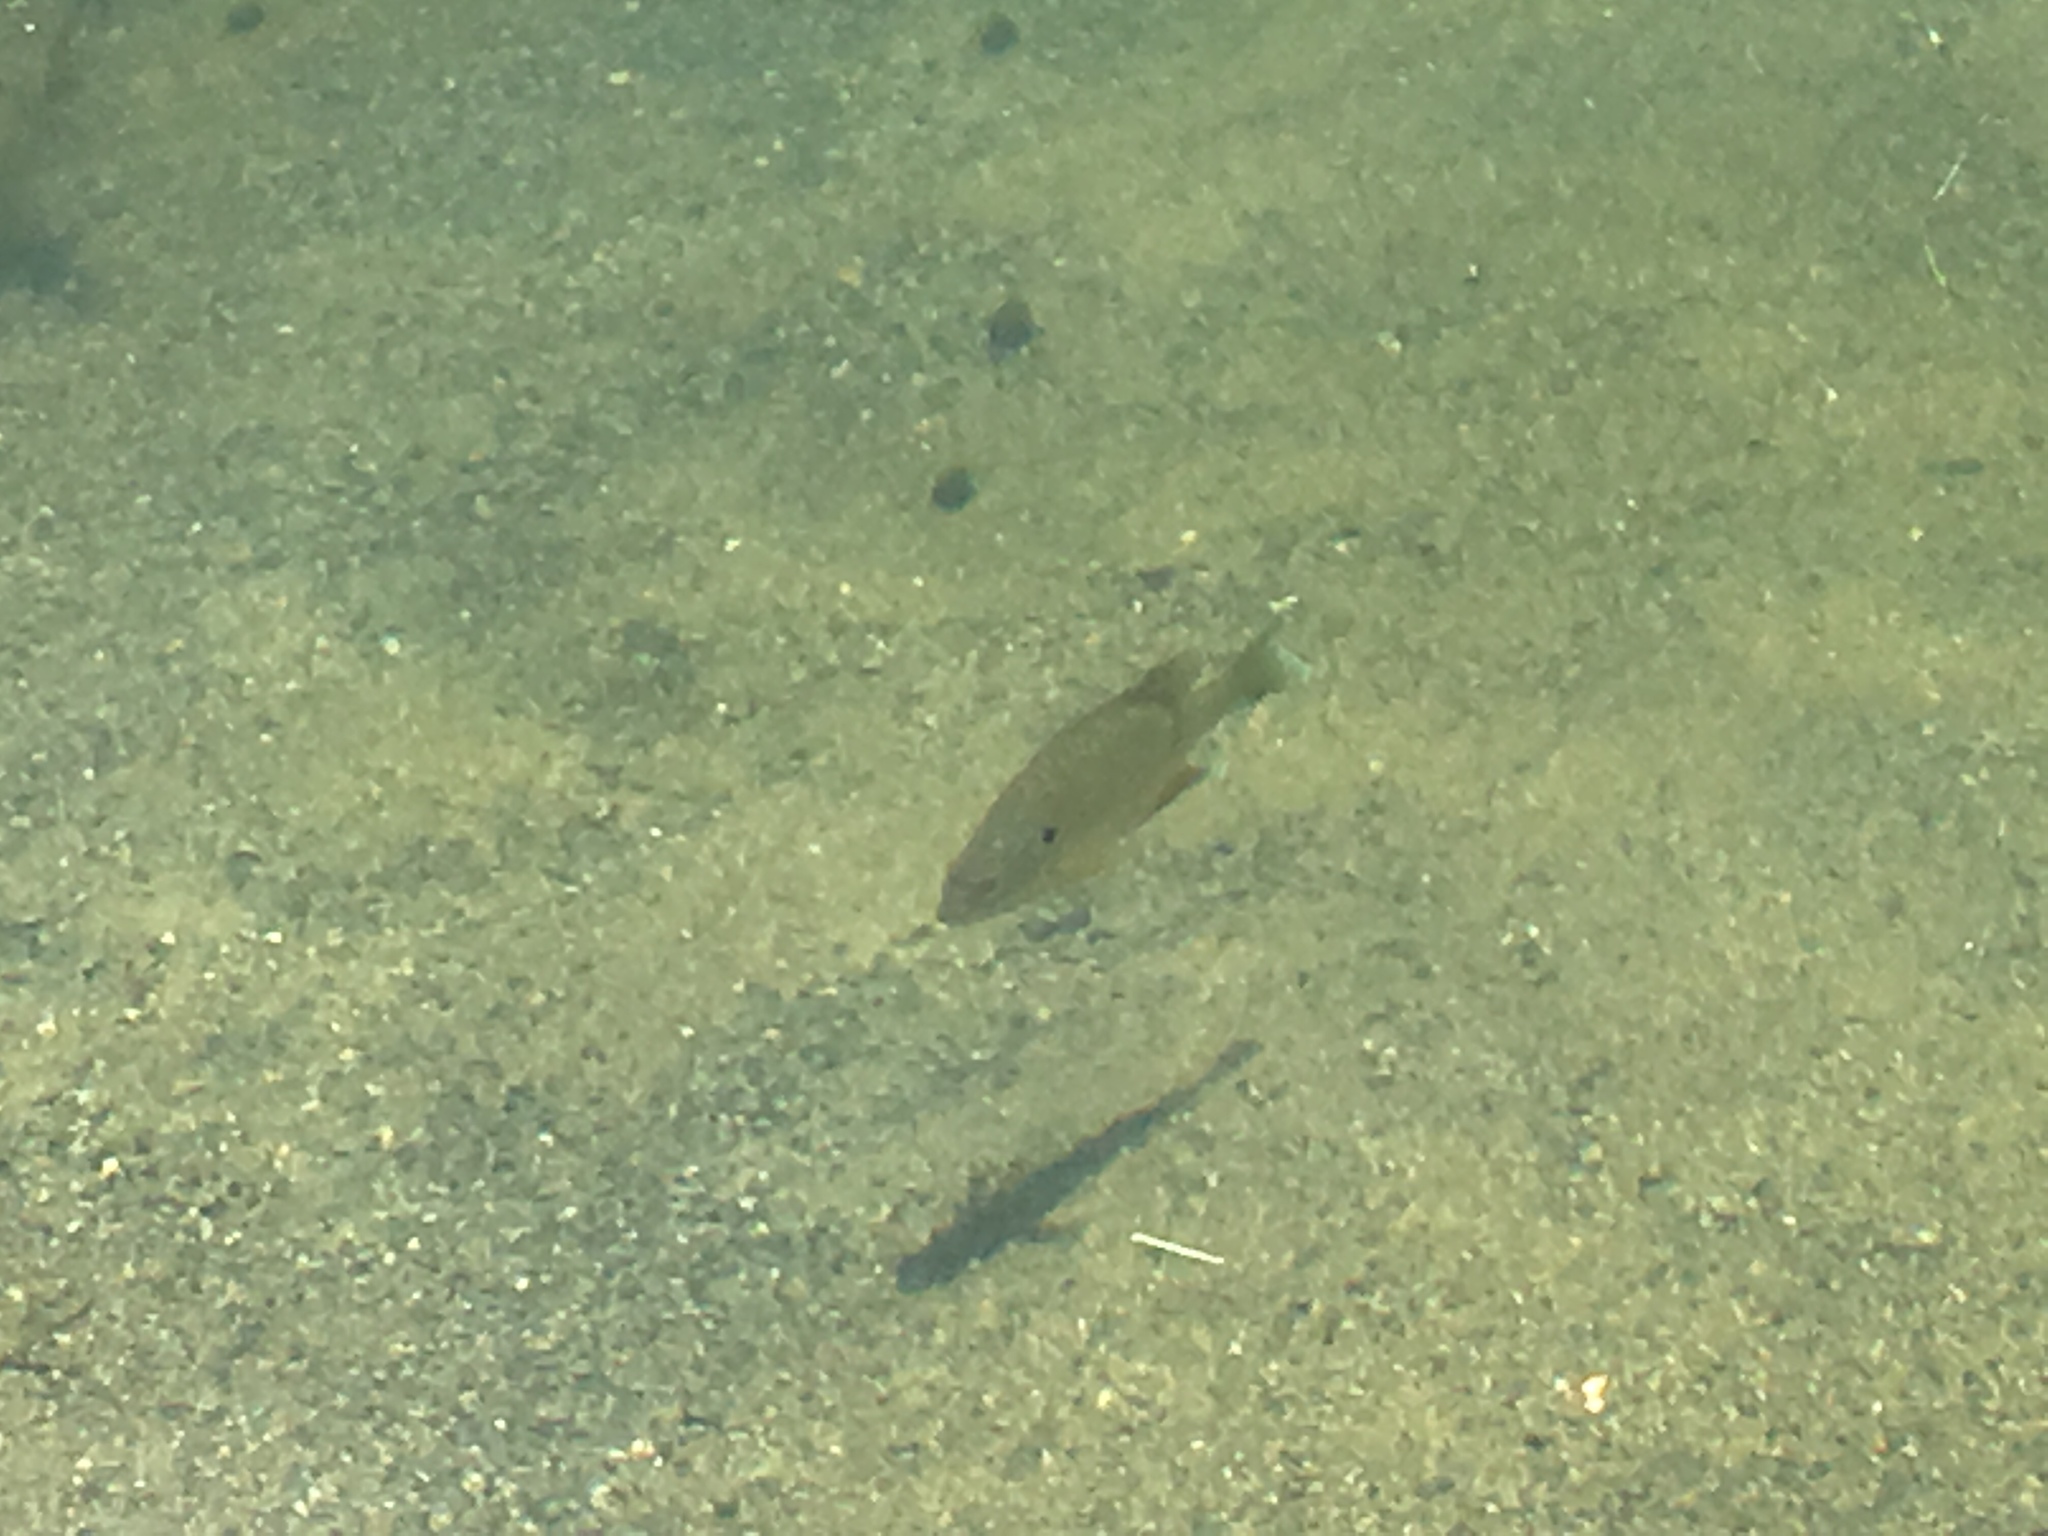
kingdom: Animalia
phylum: Chordata
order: Perciformes
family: Centrarchidae
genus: Lepomis
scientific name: Lepomis
